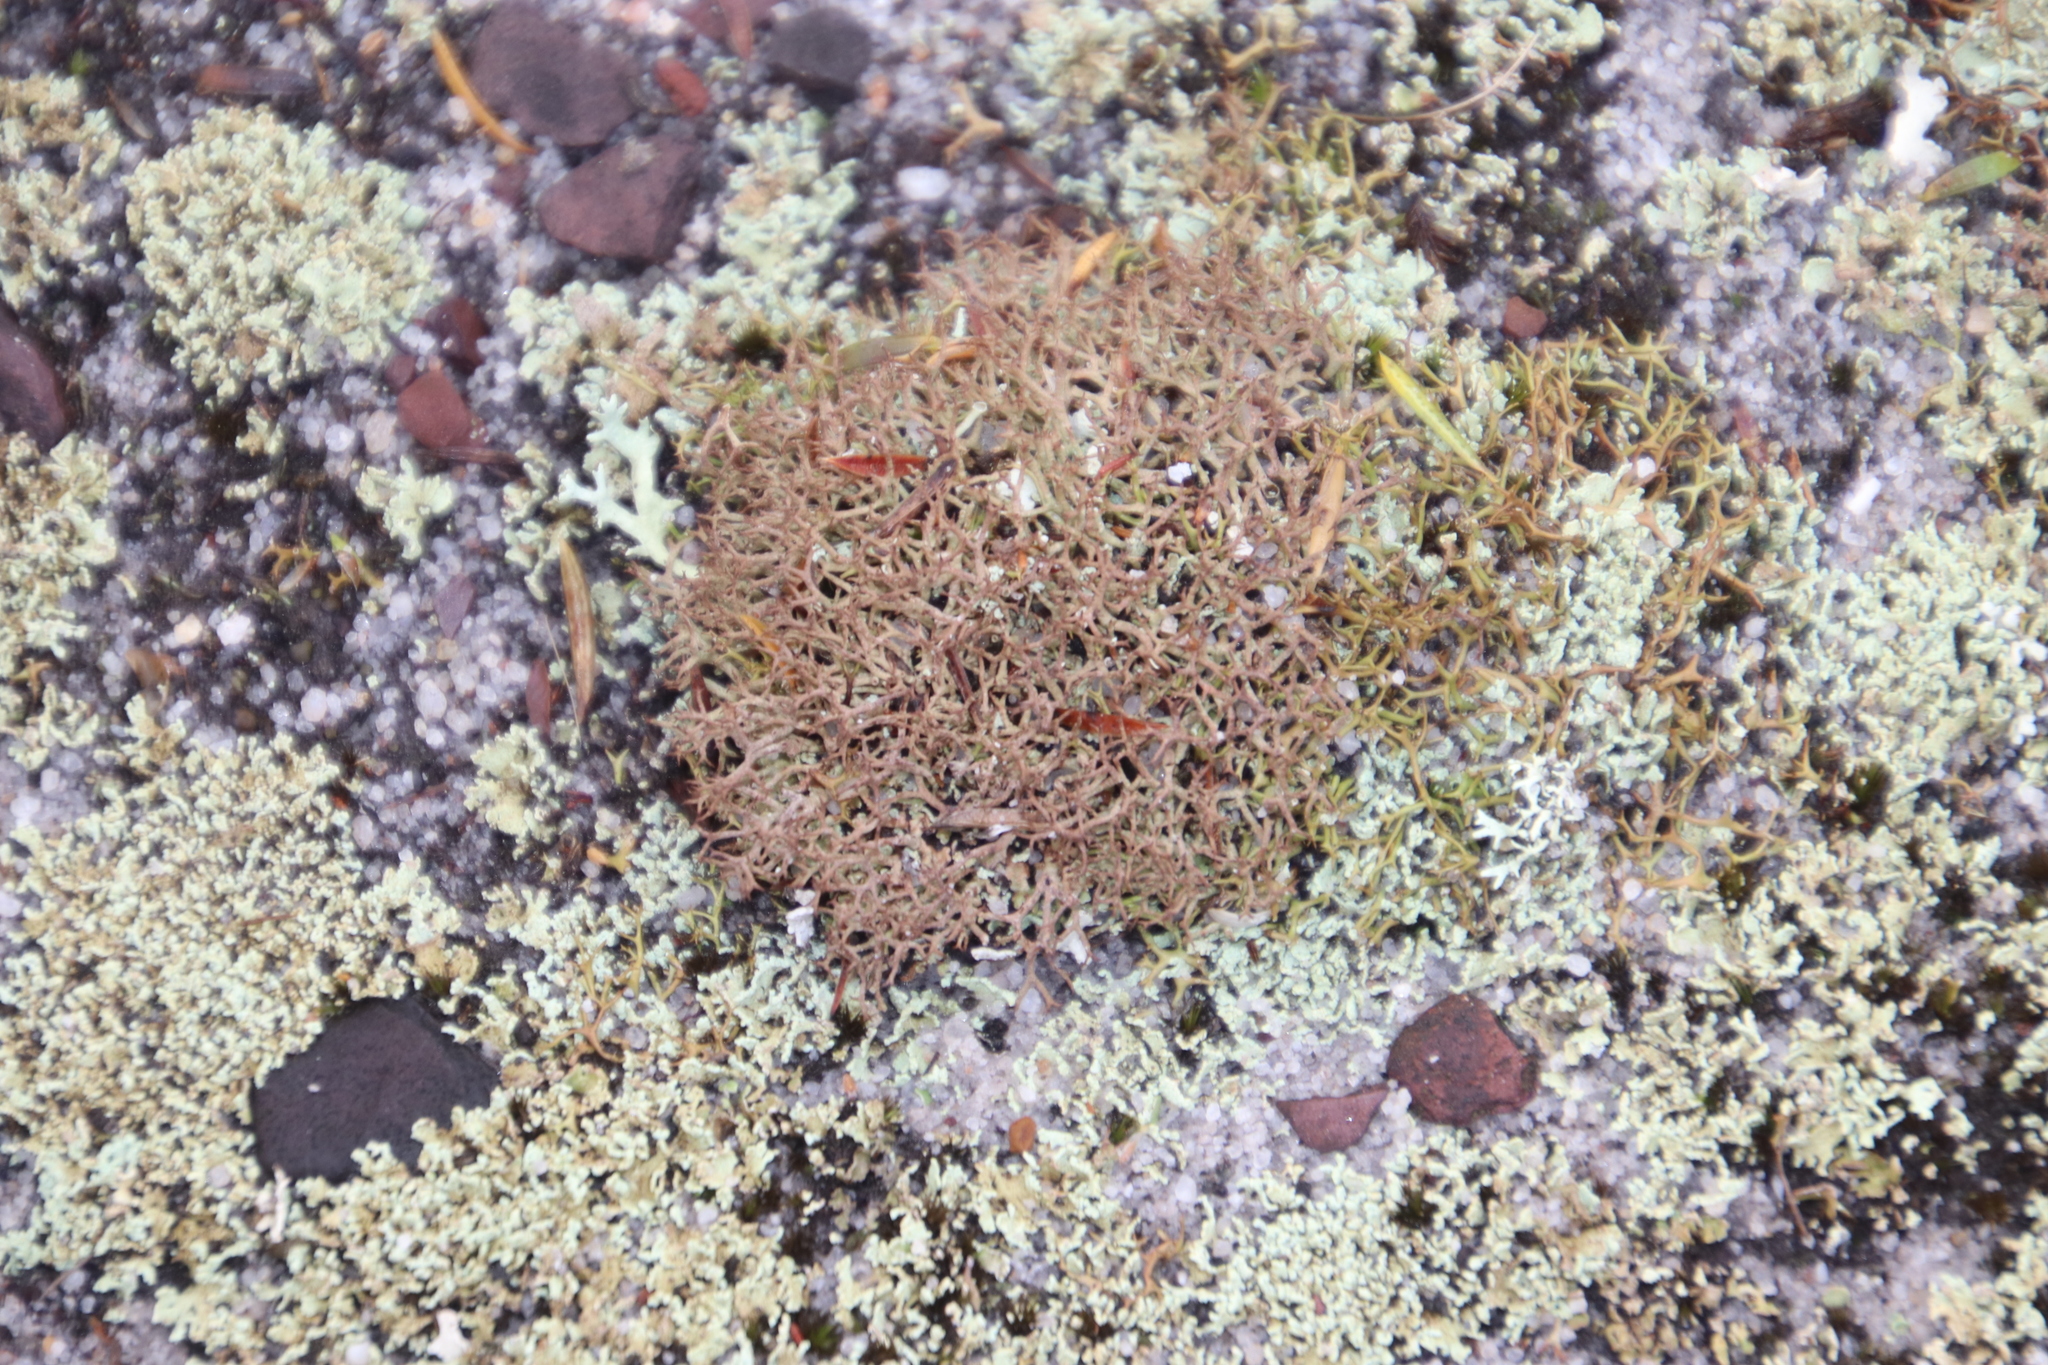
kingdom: Fungi
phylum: Ascomycota
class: Lecanoromycetes
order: Lecanorales
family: Cladoniaceae
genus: Cladia
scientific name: Cladia aggregata
